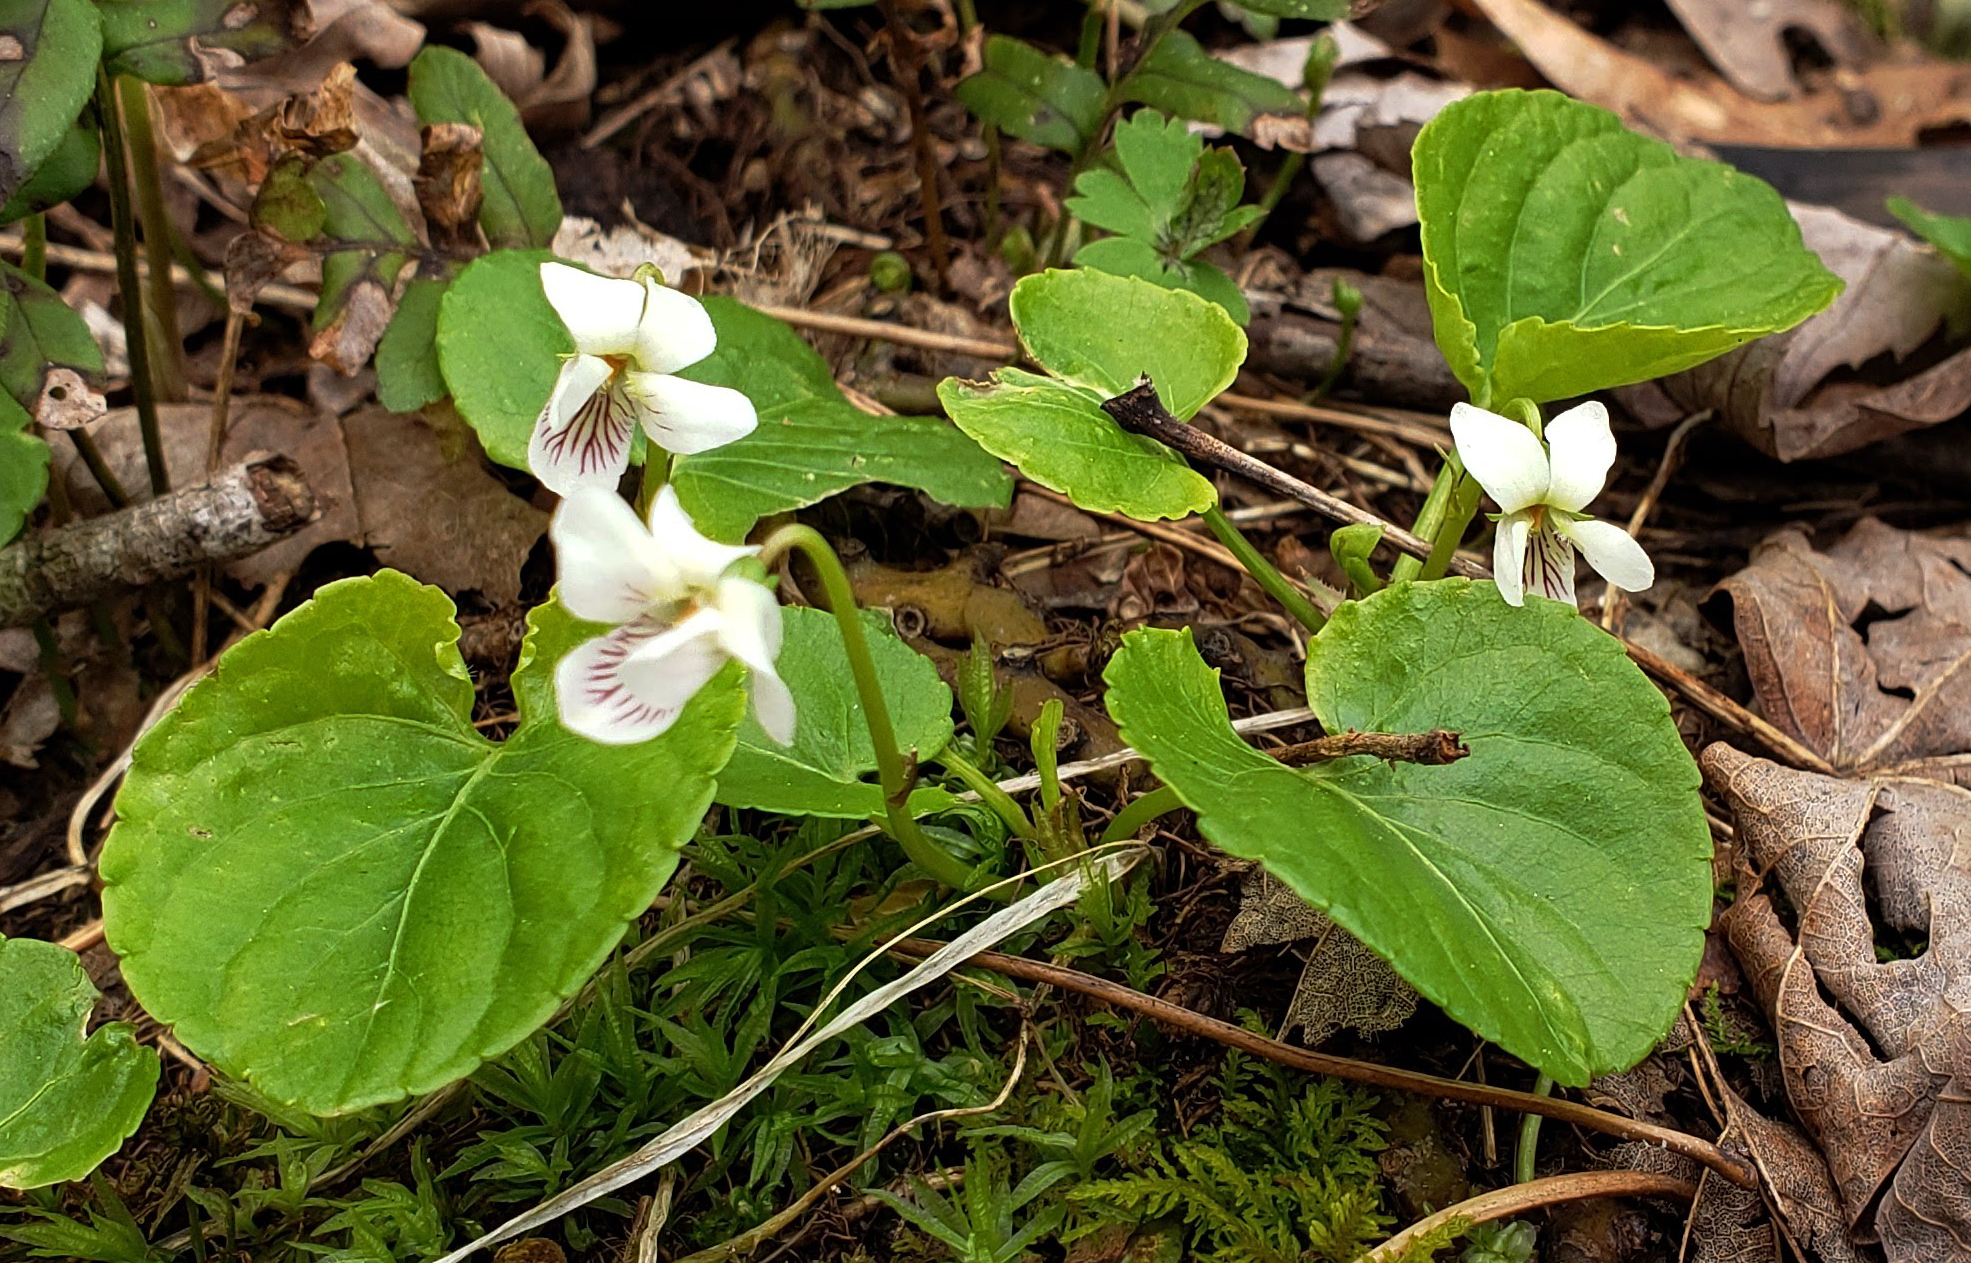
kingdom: Plantae
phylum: Tracheophyta
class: Magnoliopsida
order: Malpighiales
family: Violaceae
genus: Viola
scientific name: Viola blanda
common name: Sweet white violet
